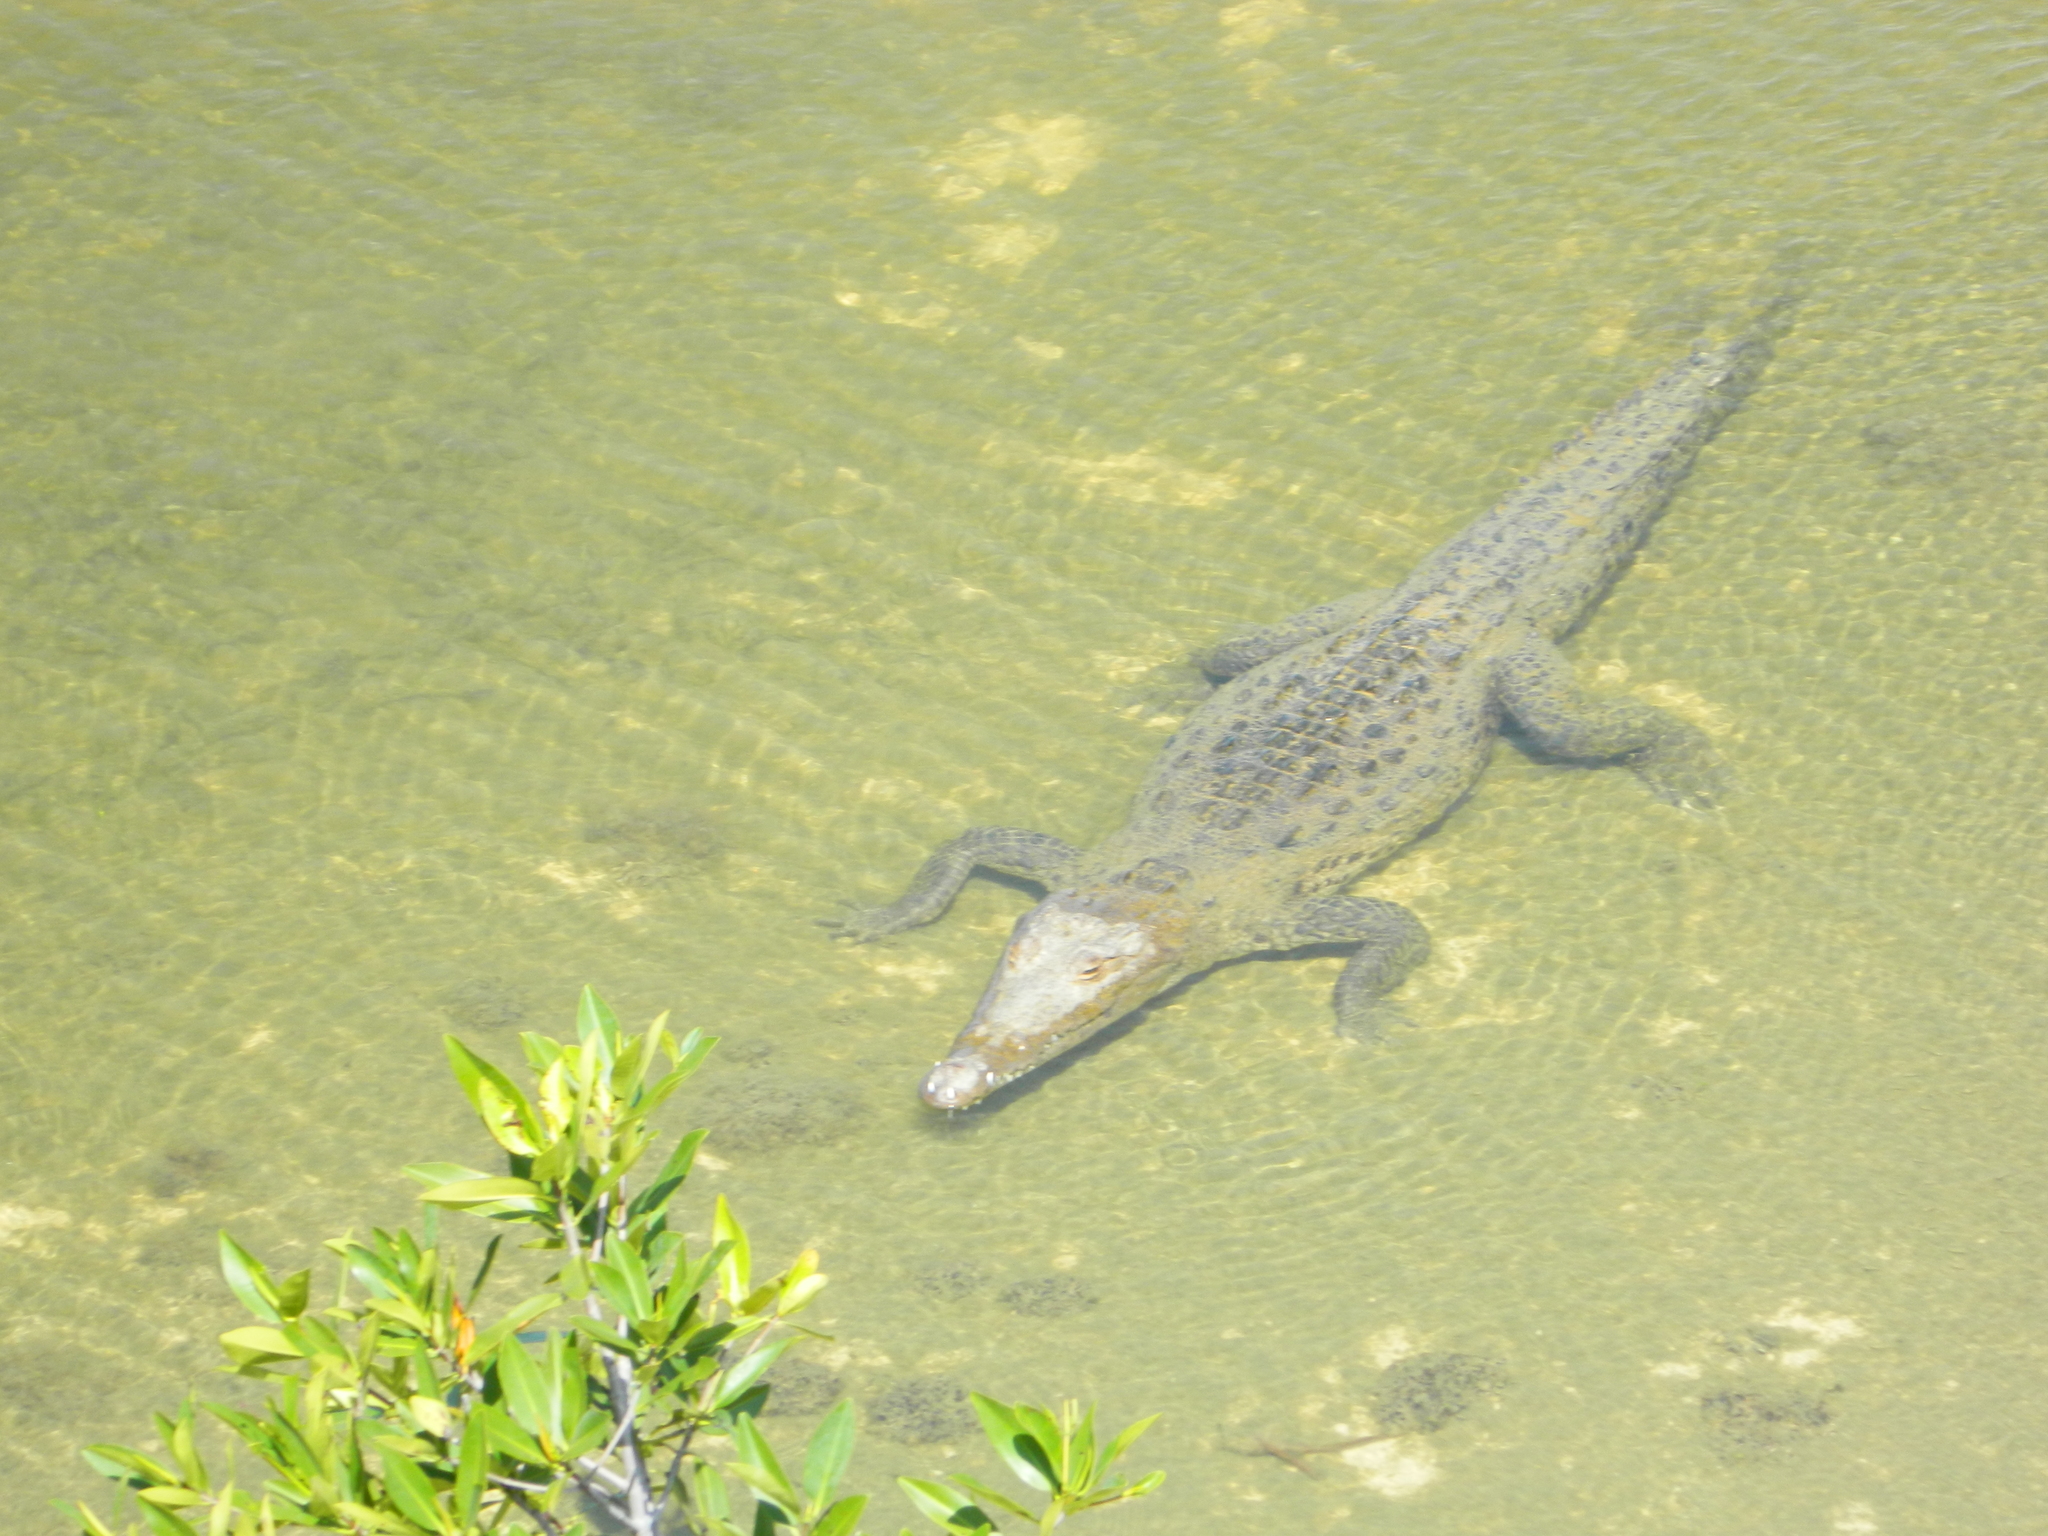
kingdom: Animalia
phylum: Chordata
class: Crocodylia
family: Crocodylidae
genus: Crocodylus
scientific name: Crocodylus acutus
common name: American crocodile
